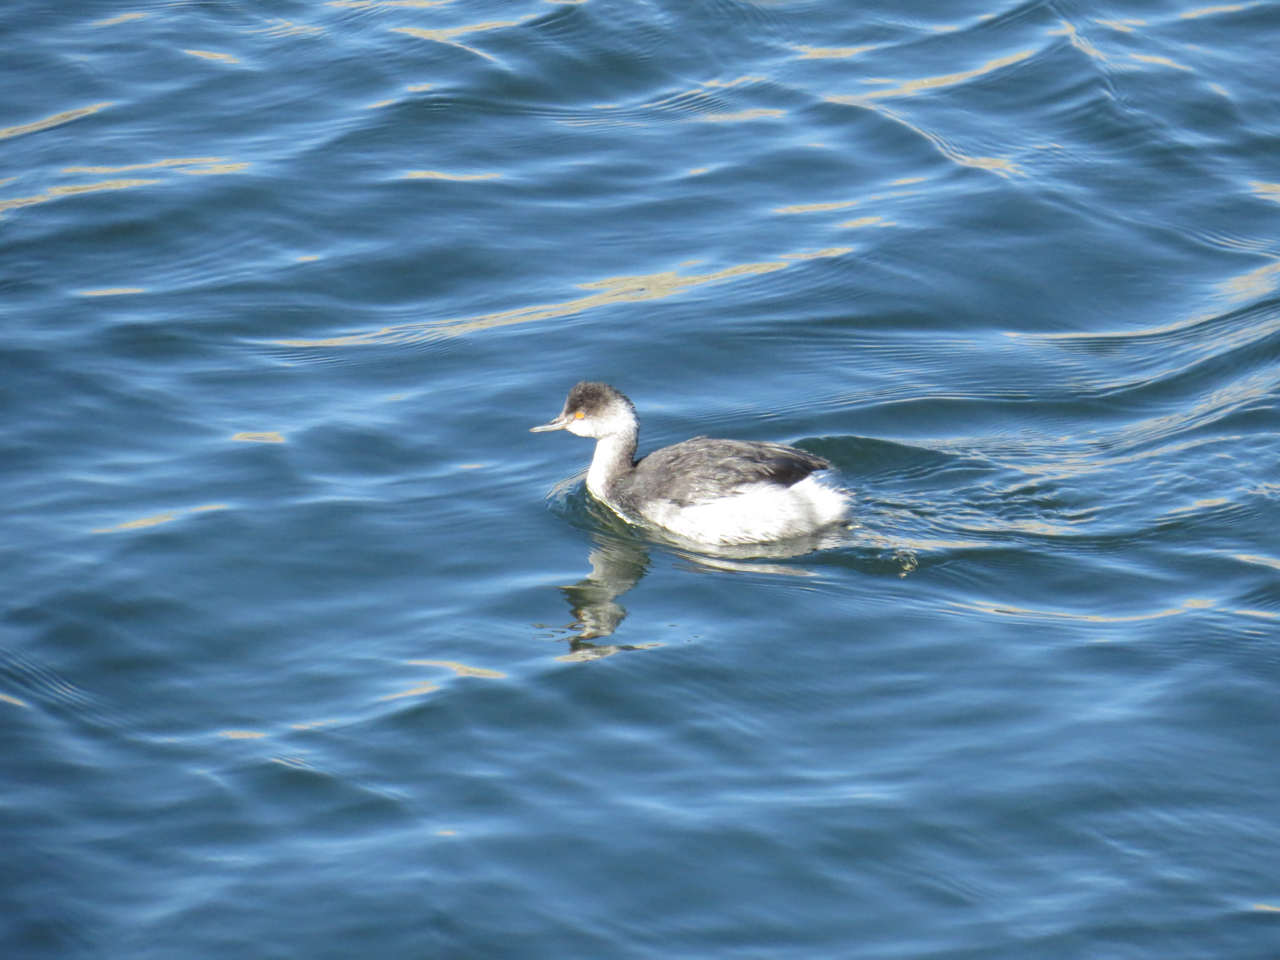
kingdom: Animalia
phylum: Chordata
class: Aves
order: Podicipediformes
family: Podicipedidae
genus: Podiceps
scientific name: Podiceps nigricollis
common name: Black-necked grebe
